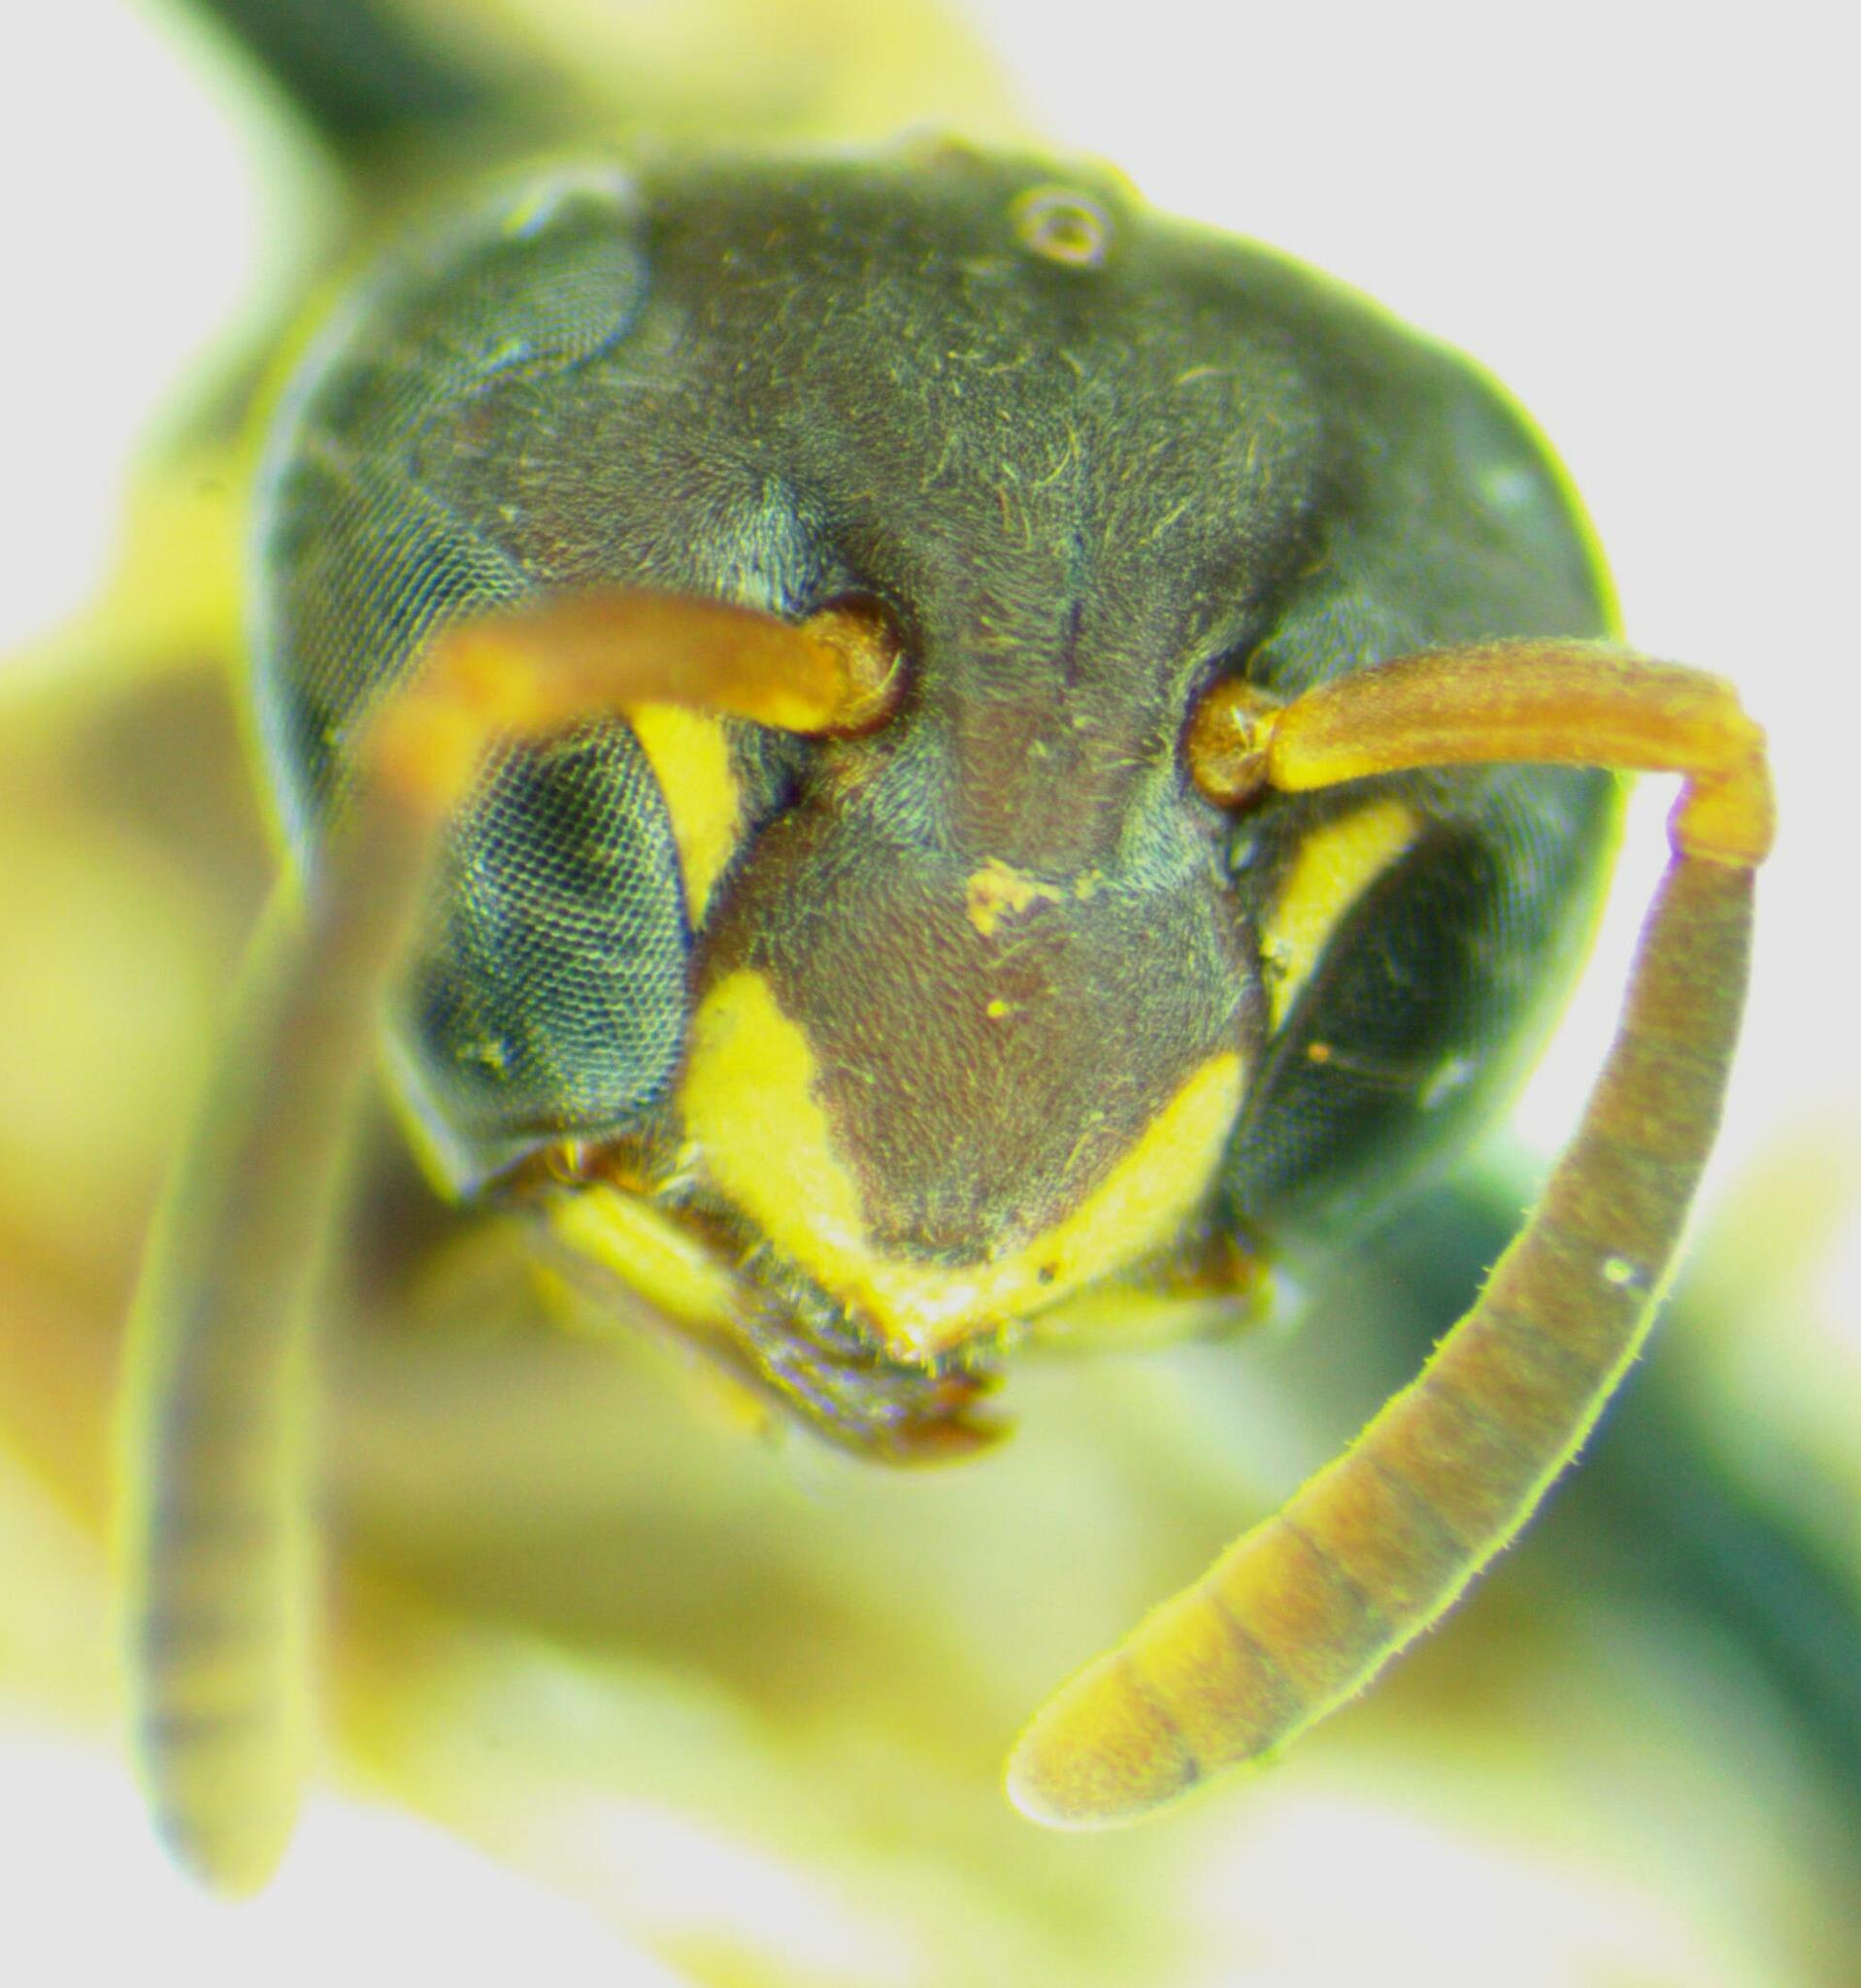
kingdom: Animalia
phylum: Arthropoda
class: Insecta
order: Hymenoptera
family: Eumenidae
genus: Polybia
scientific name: Polybia occidentalis
